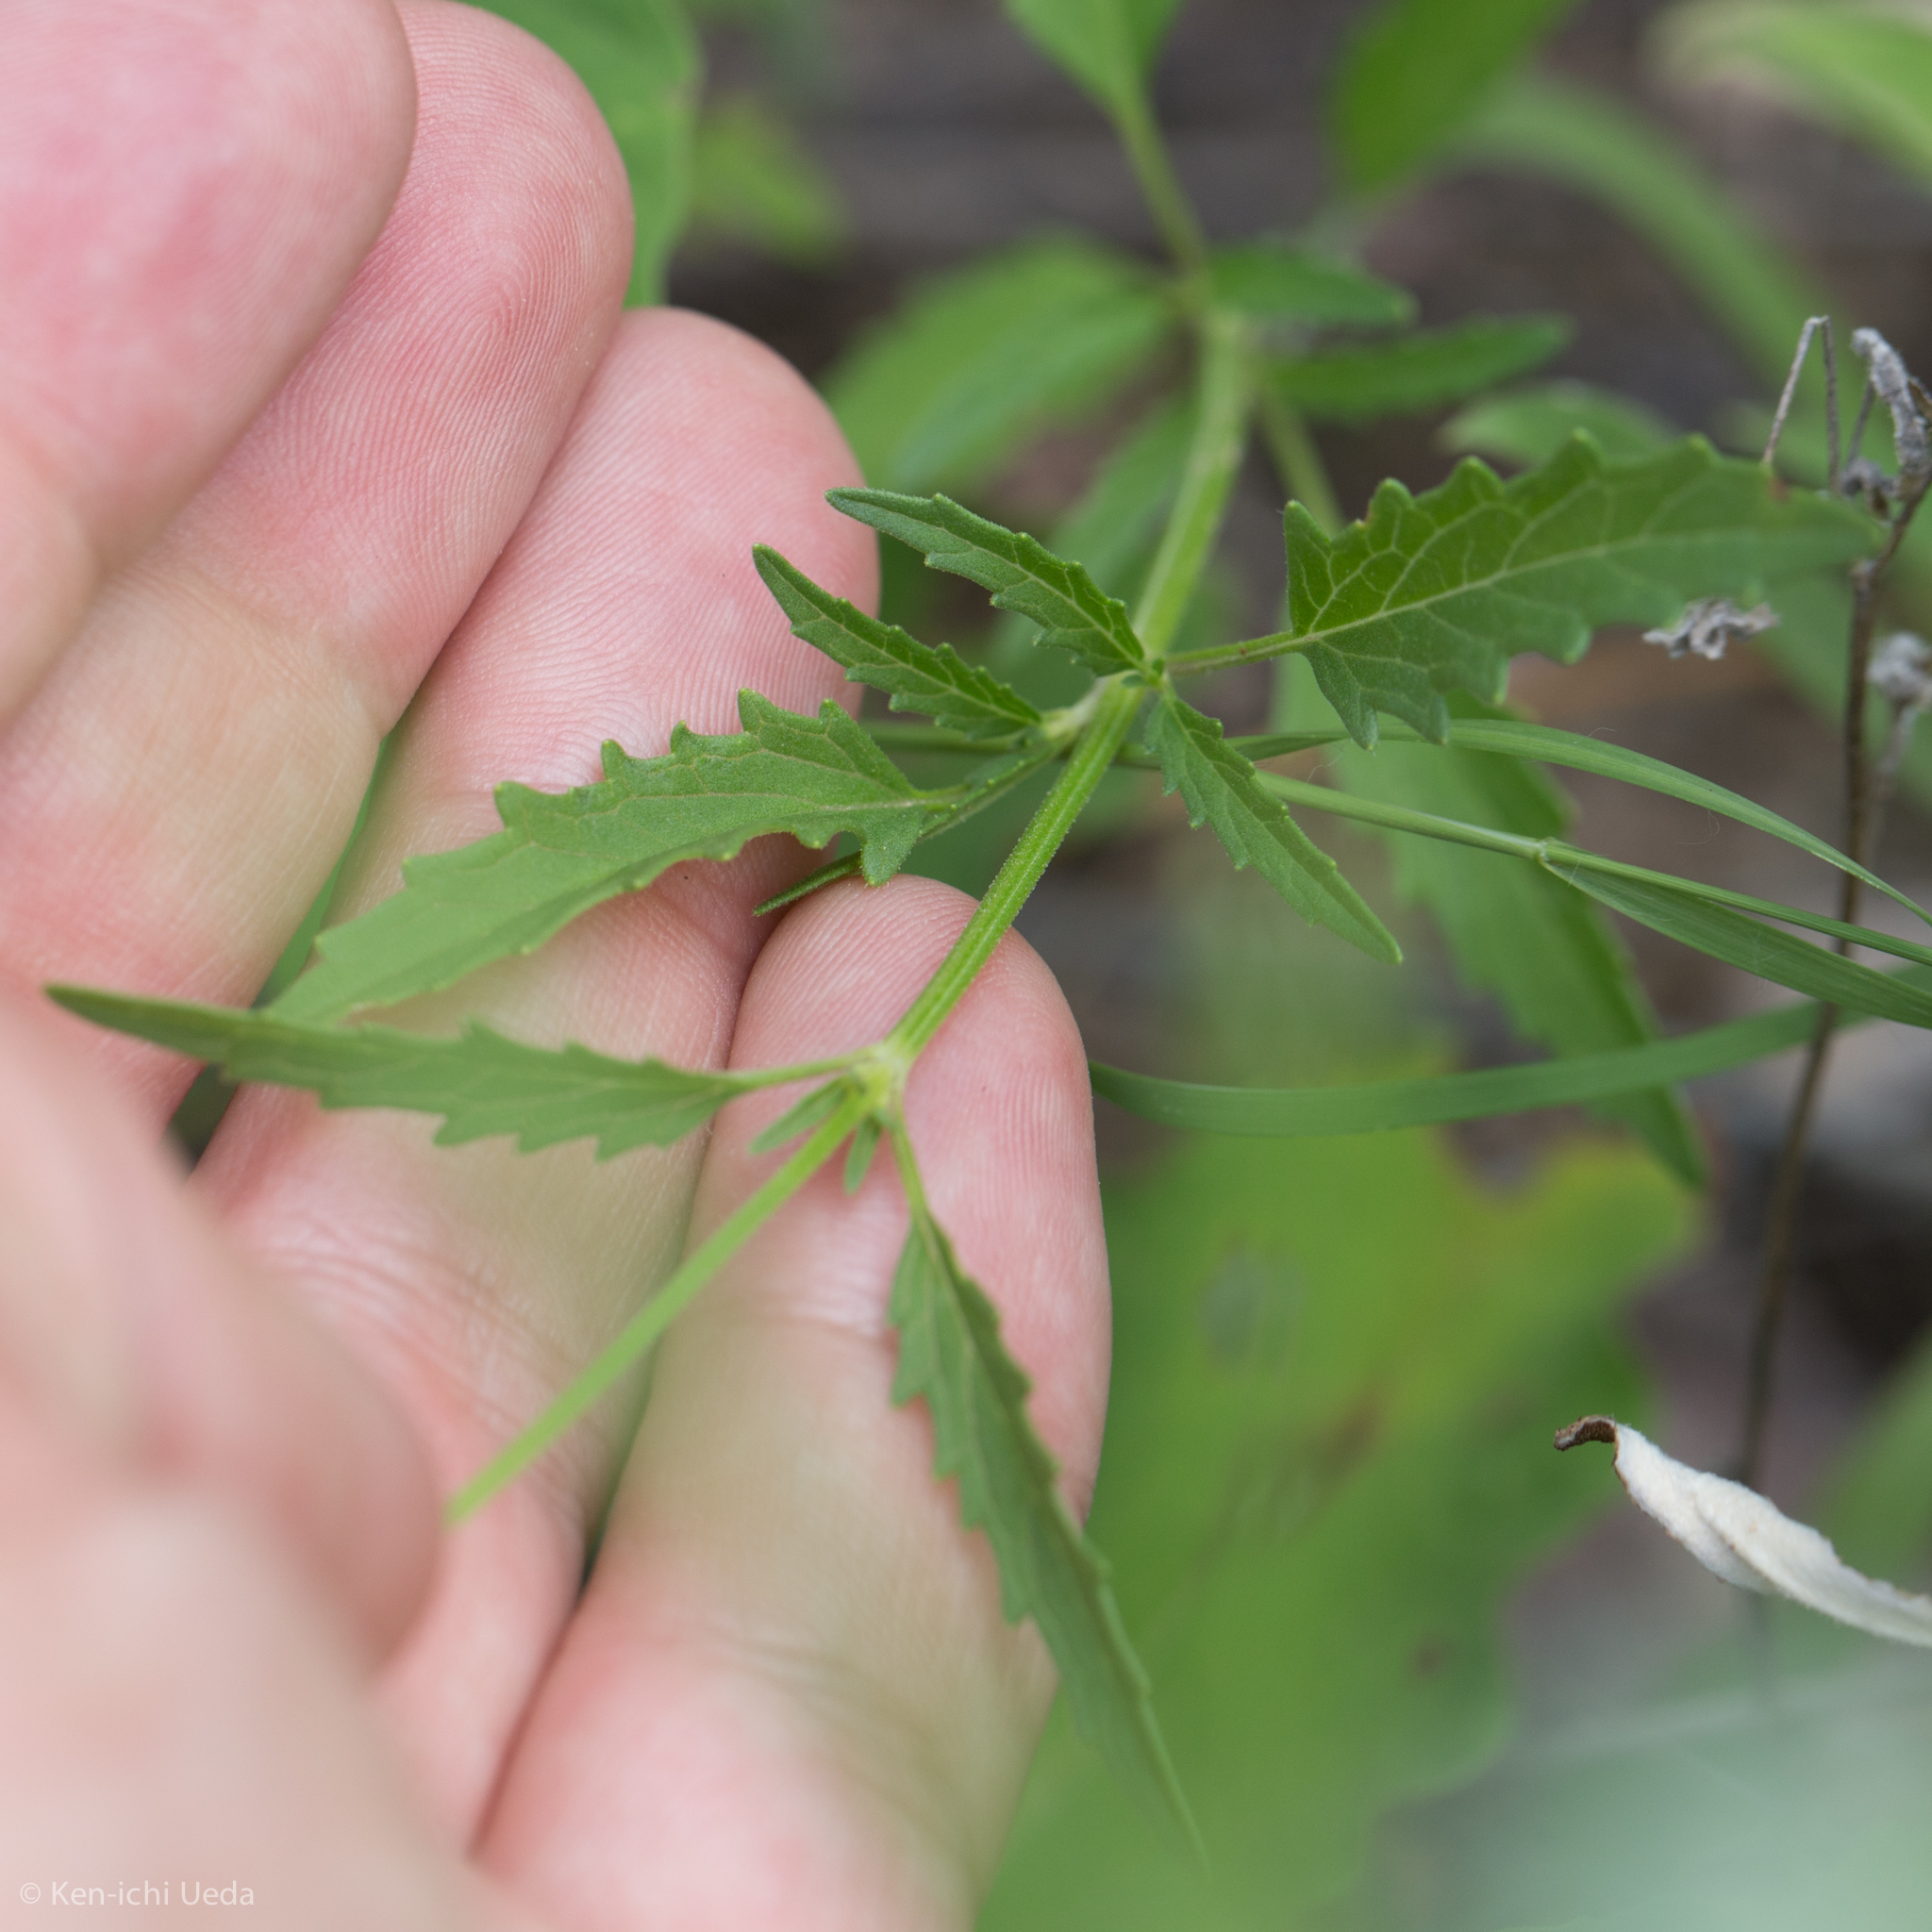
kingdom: Plantae
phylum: Tracheophyta
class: Magnoliopsida
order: Lamiales
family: Lamiaceae
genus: Salvia
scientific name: Salvia subincisa
